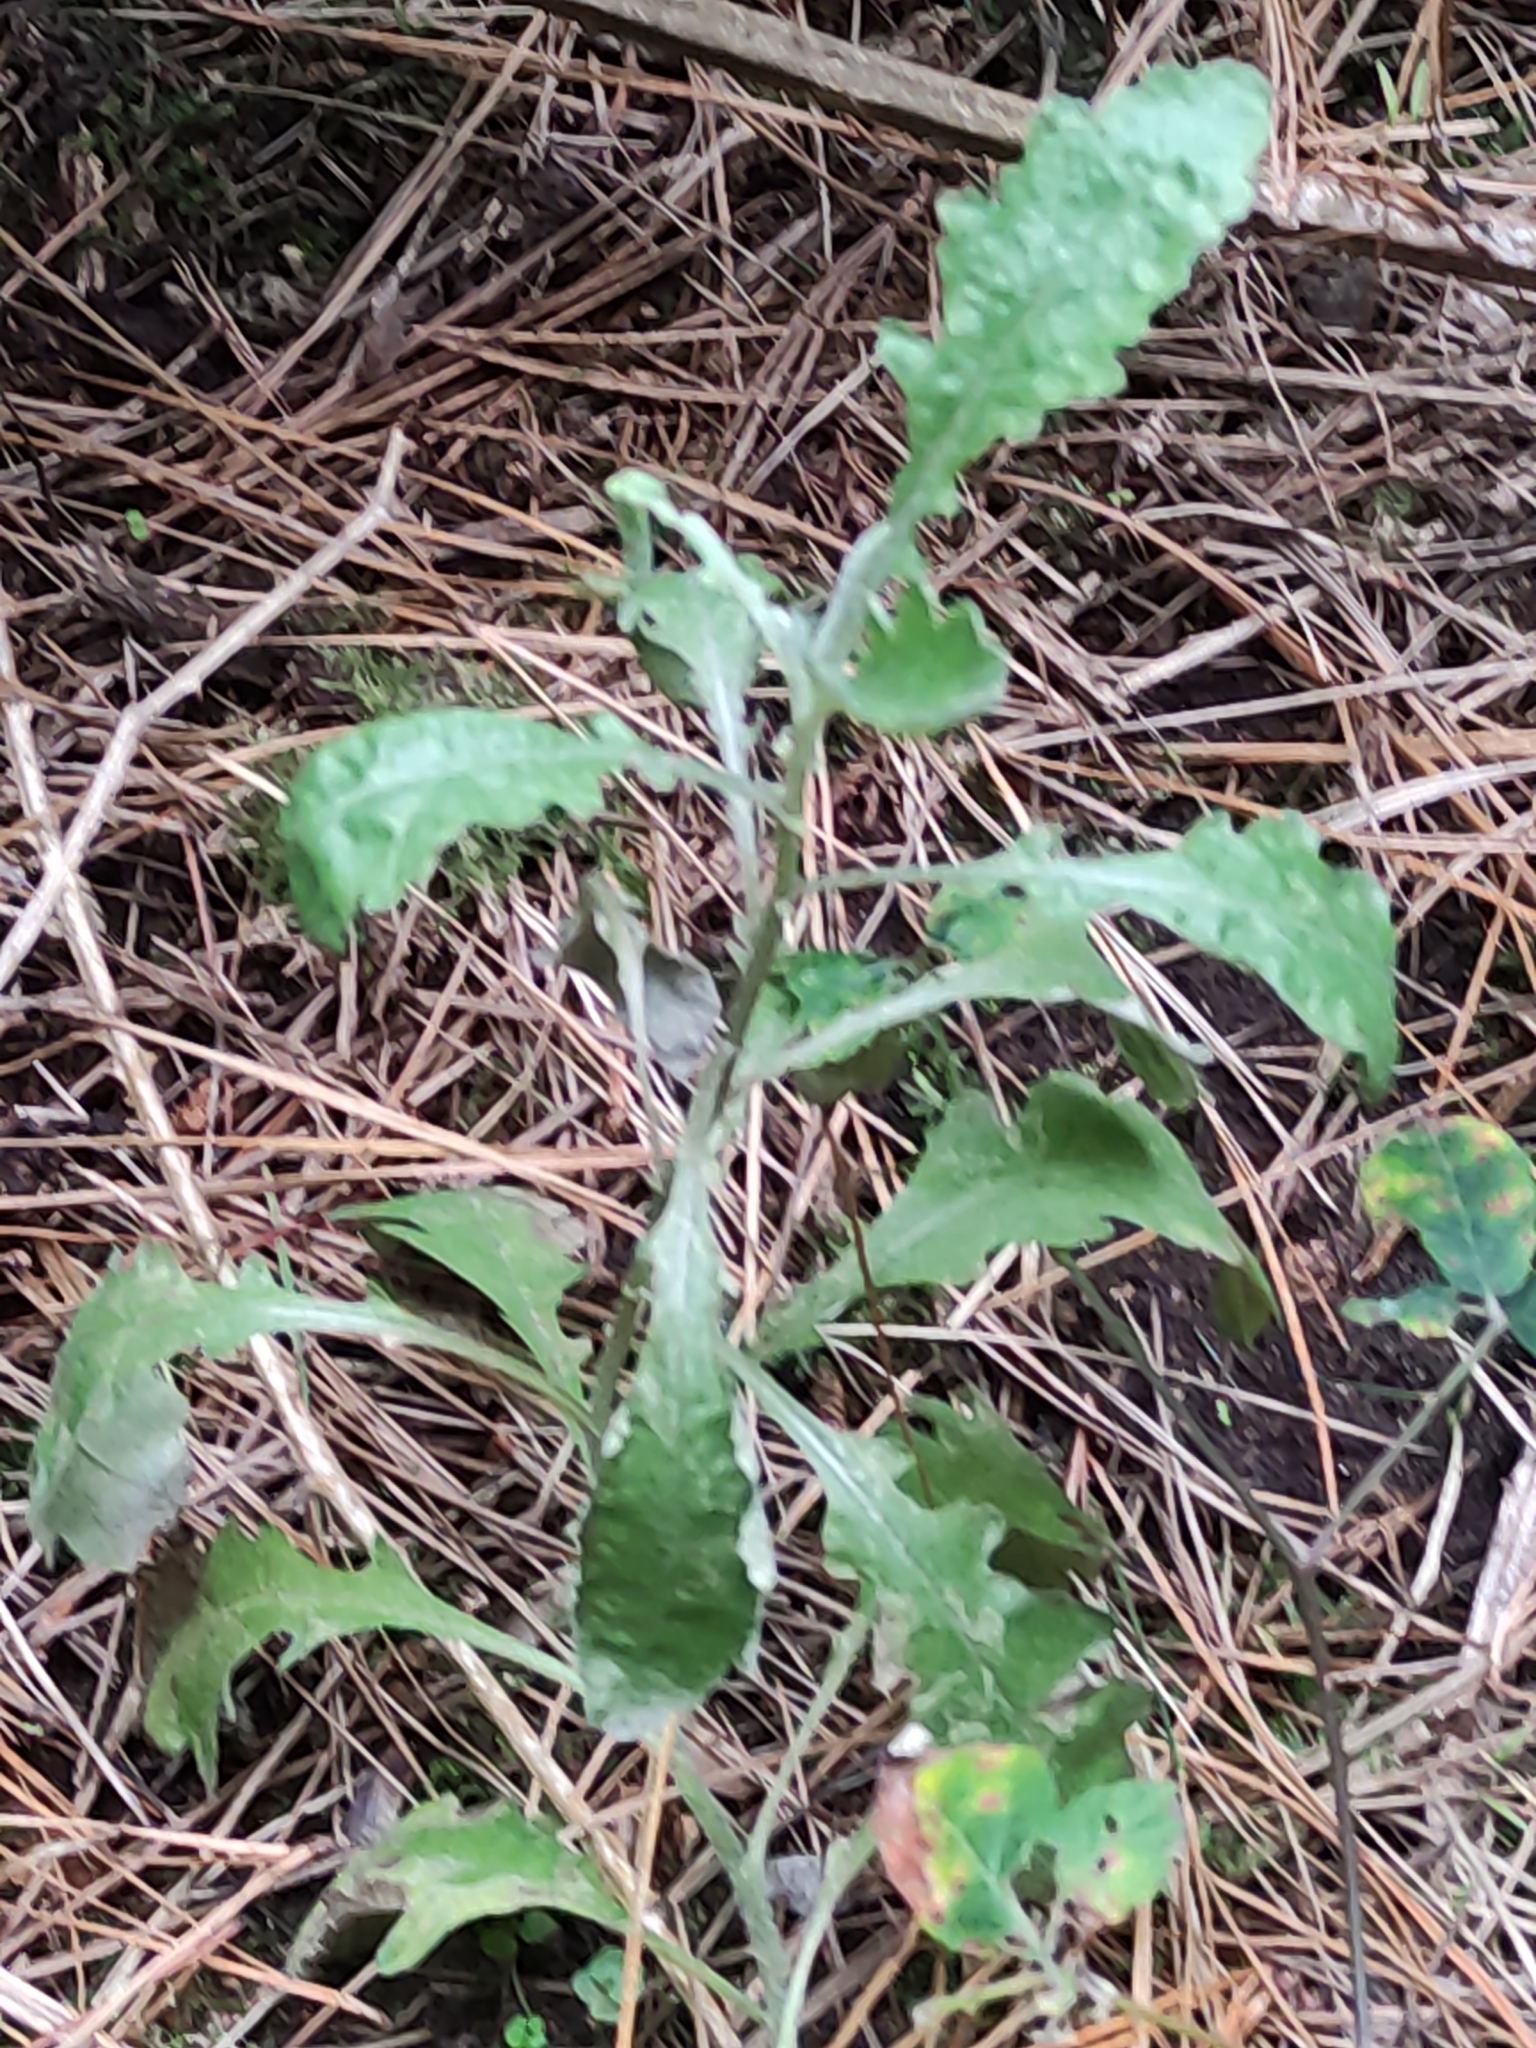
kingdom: Plantae
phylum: Tracheophyta
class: Magnoliopsida
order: Asterales
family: Asteraceae
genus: Senecio
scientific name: Senecio glomeratus
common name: Cutleaf burnweed
